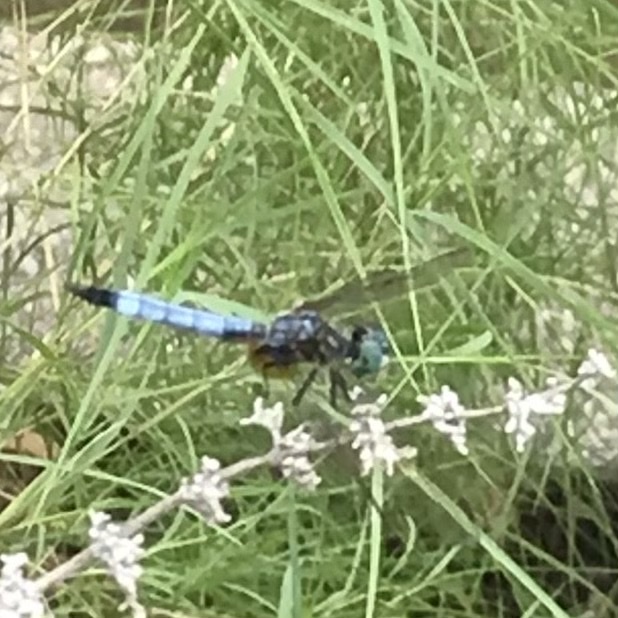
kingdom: Animalia
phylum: Arthropoda
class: Insecta
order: Odonata
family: Libellulidae
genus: Pachydiplax
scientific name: Pachydiplax longipennis
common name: Blue dasher
